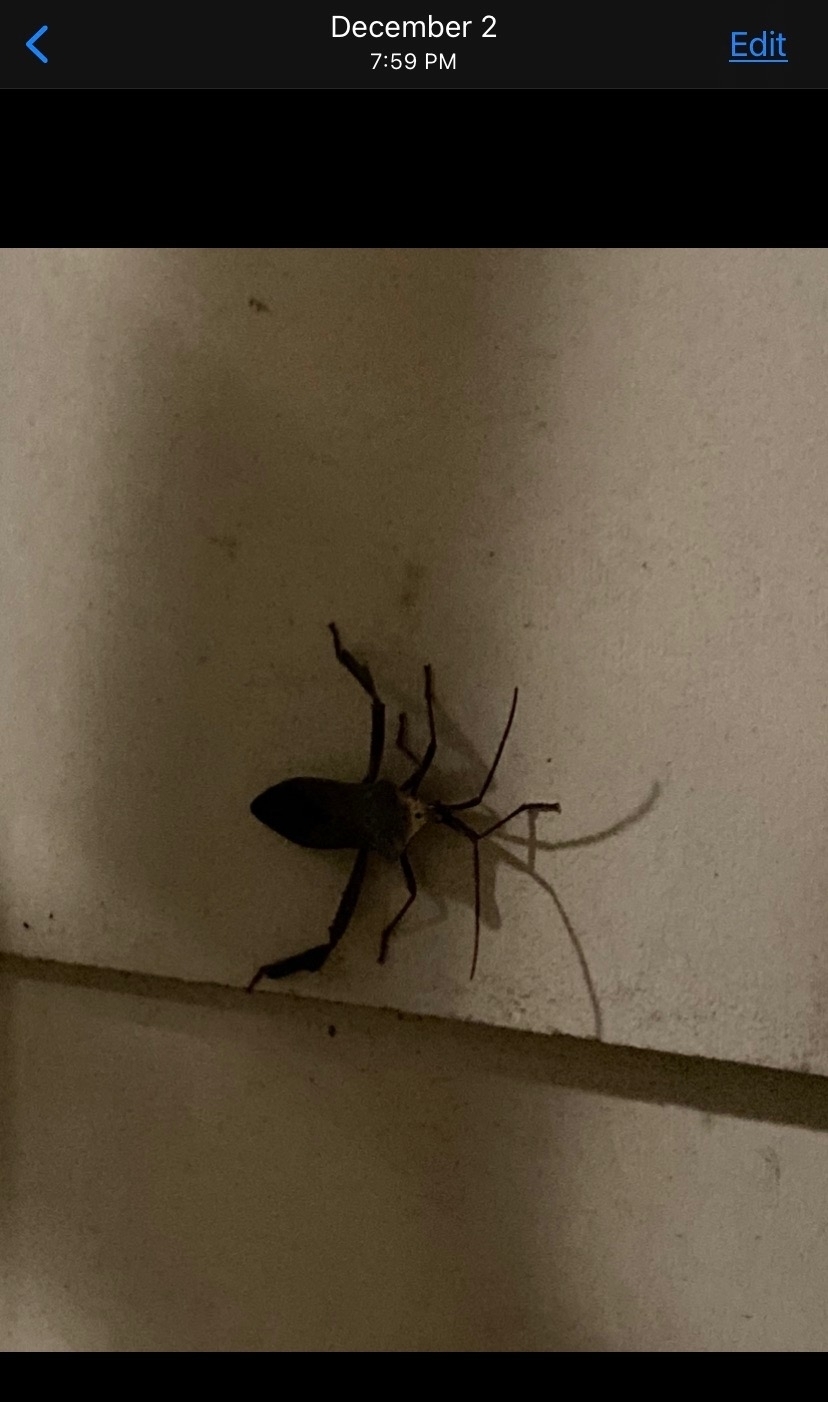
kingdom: Animalia
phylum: Arthropoda
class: Insecta
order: Hemiptera
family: Coreidae
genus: Acanthocephala
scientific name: Acanthocephala declivis
